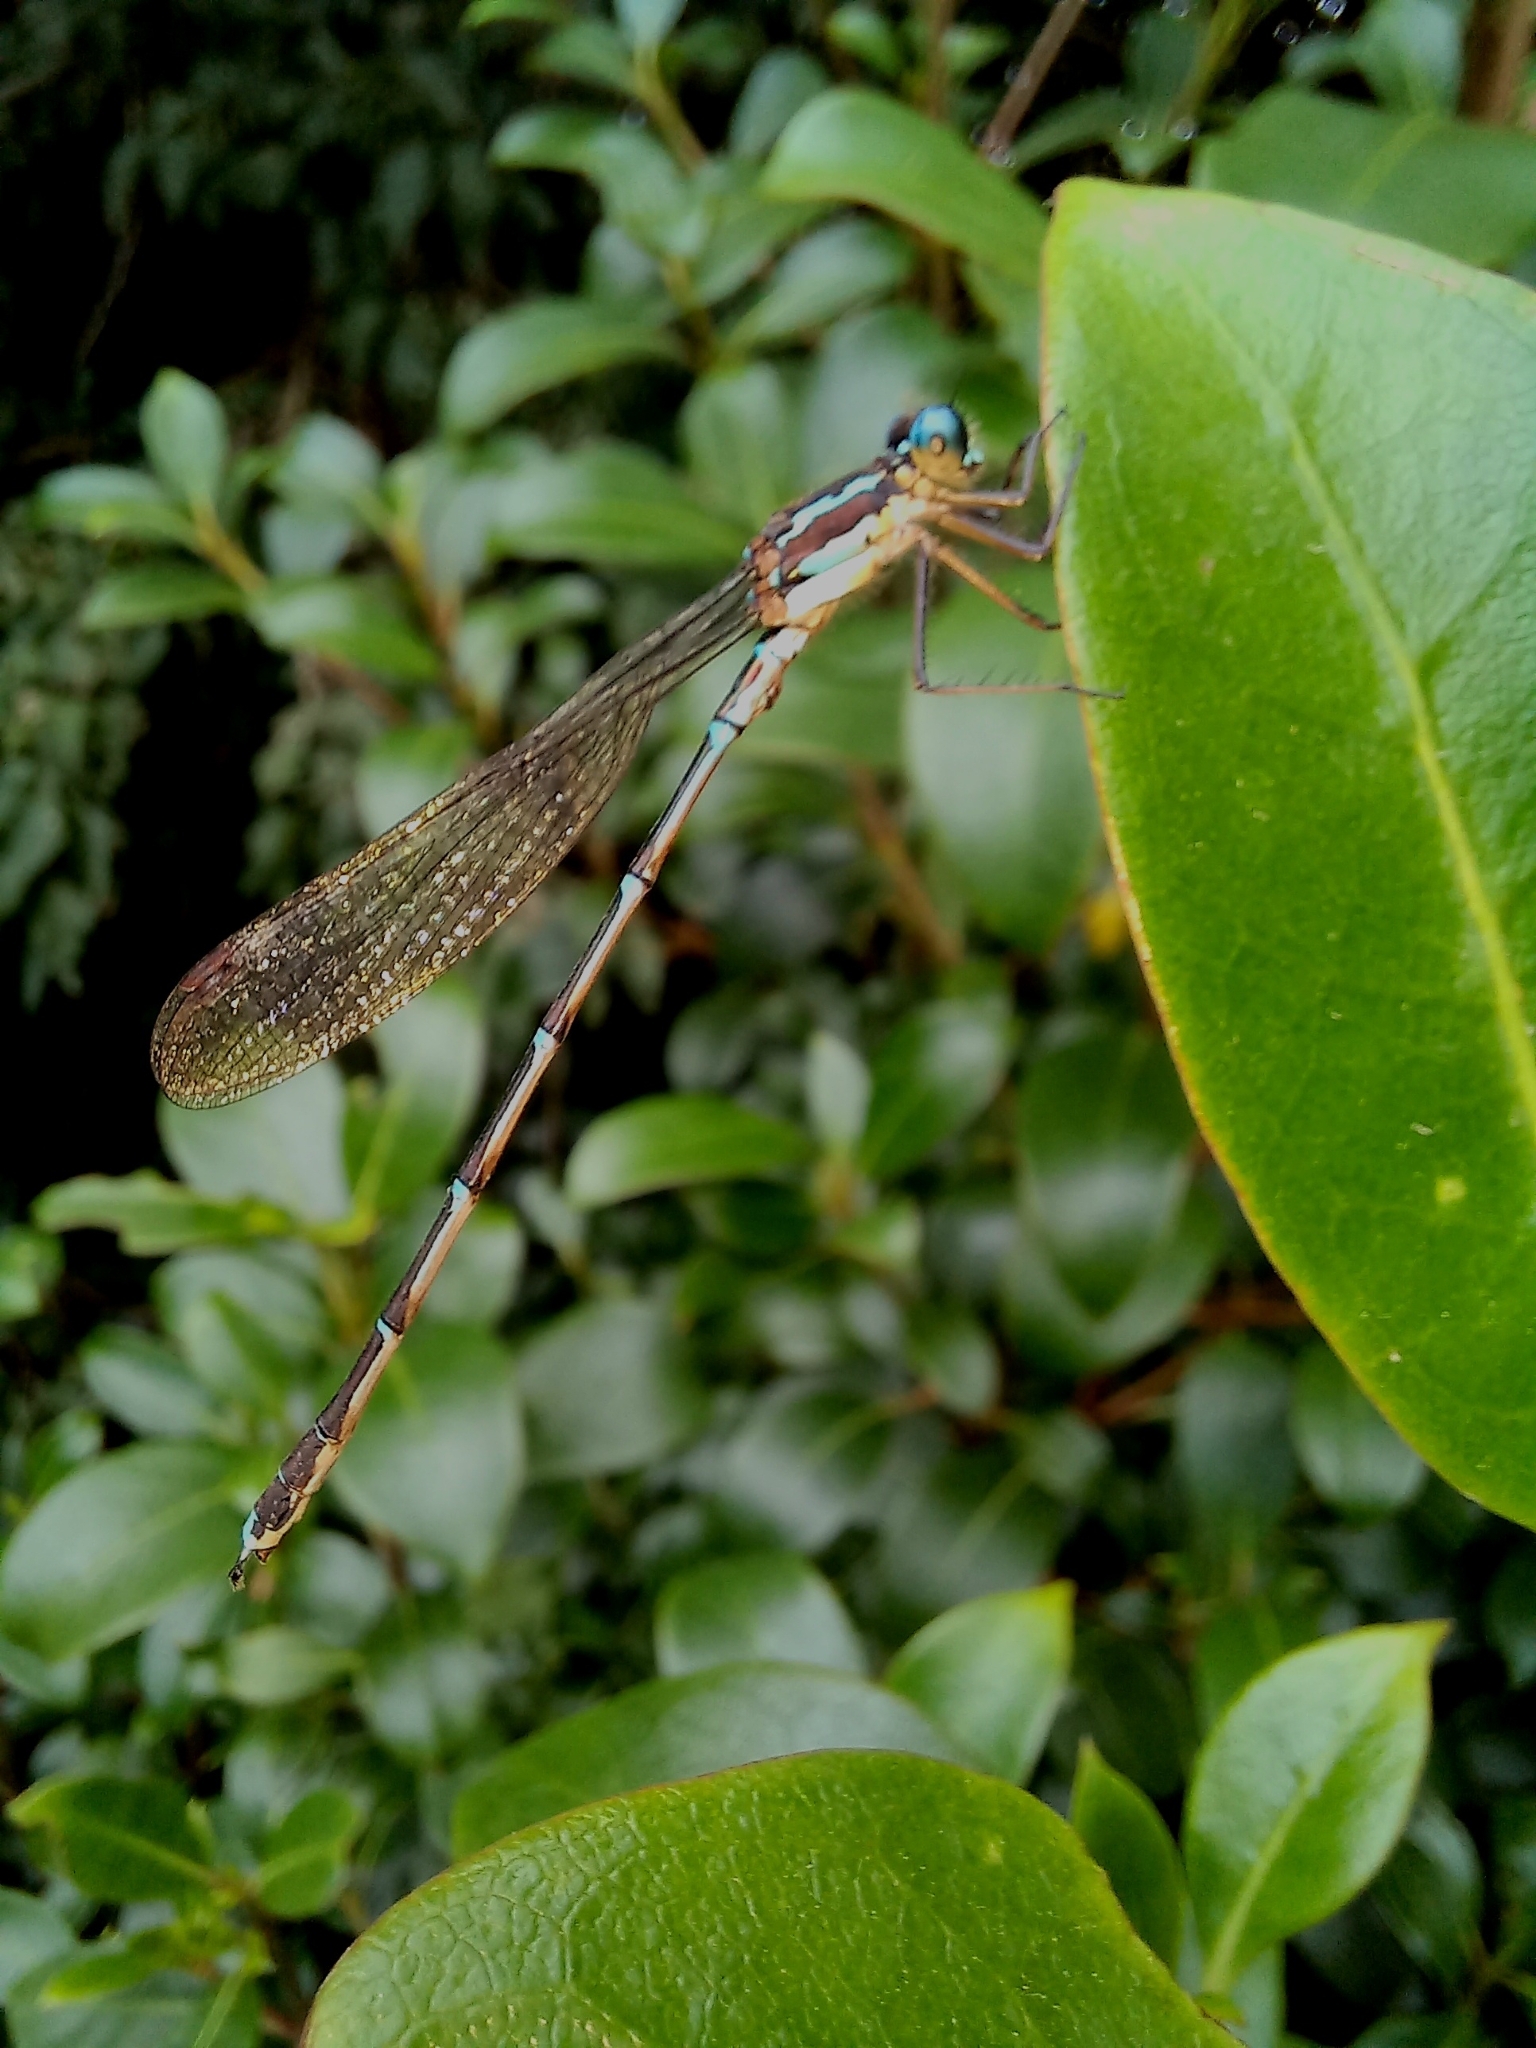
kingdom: Animalia
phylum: Arthropoda
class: Insecta
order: Odonata
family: Lestidae
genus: Austrolestes
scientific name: Austrolestes colensonis
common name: Blue damselfly
